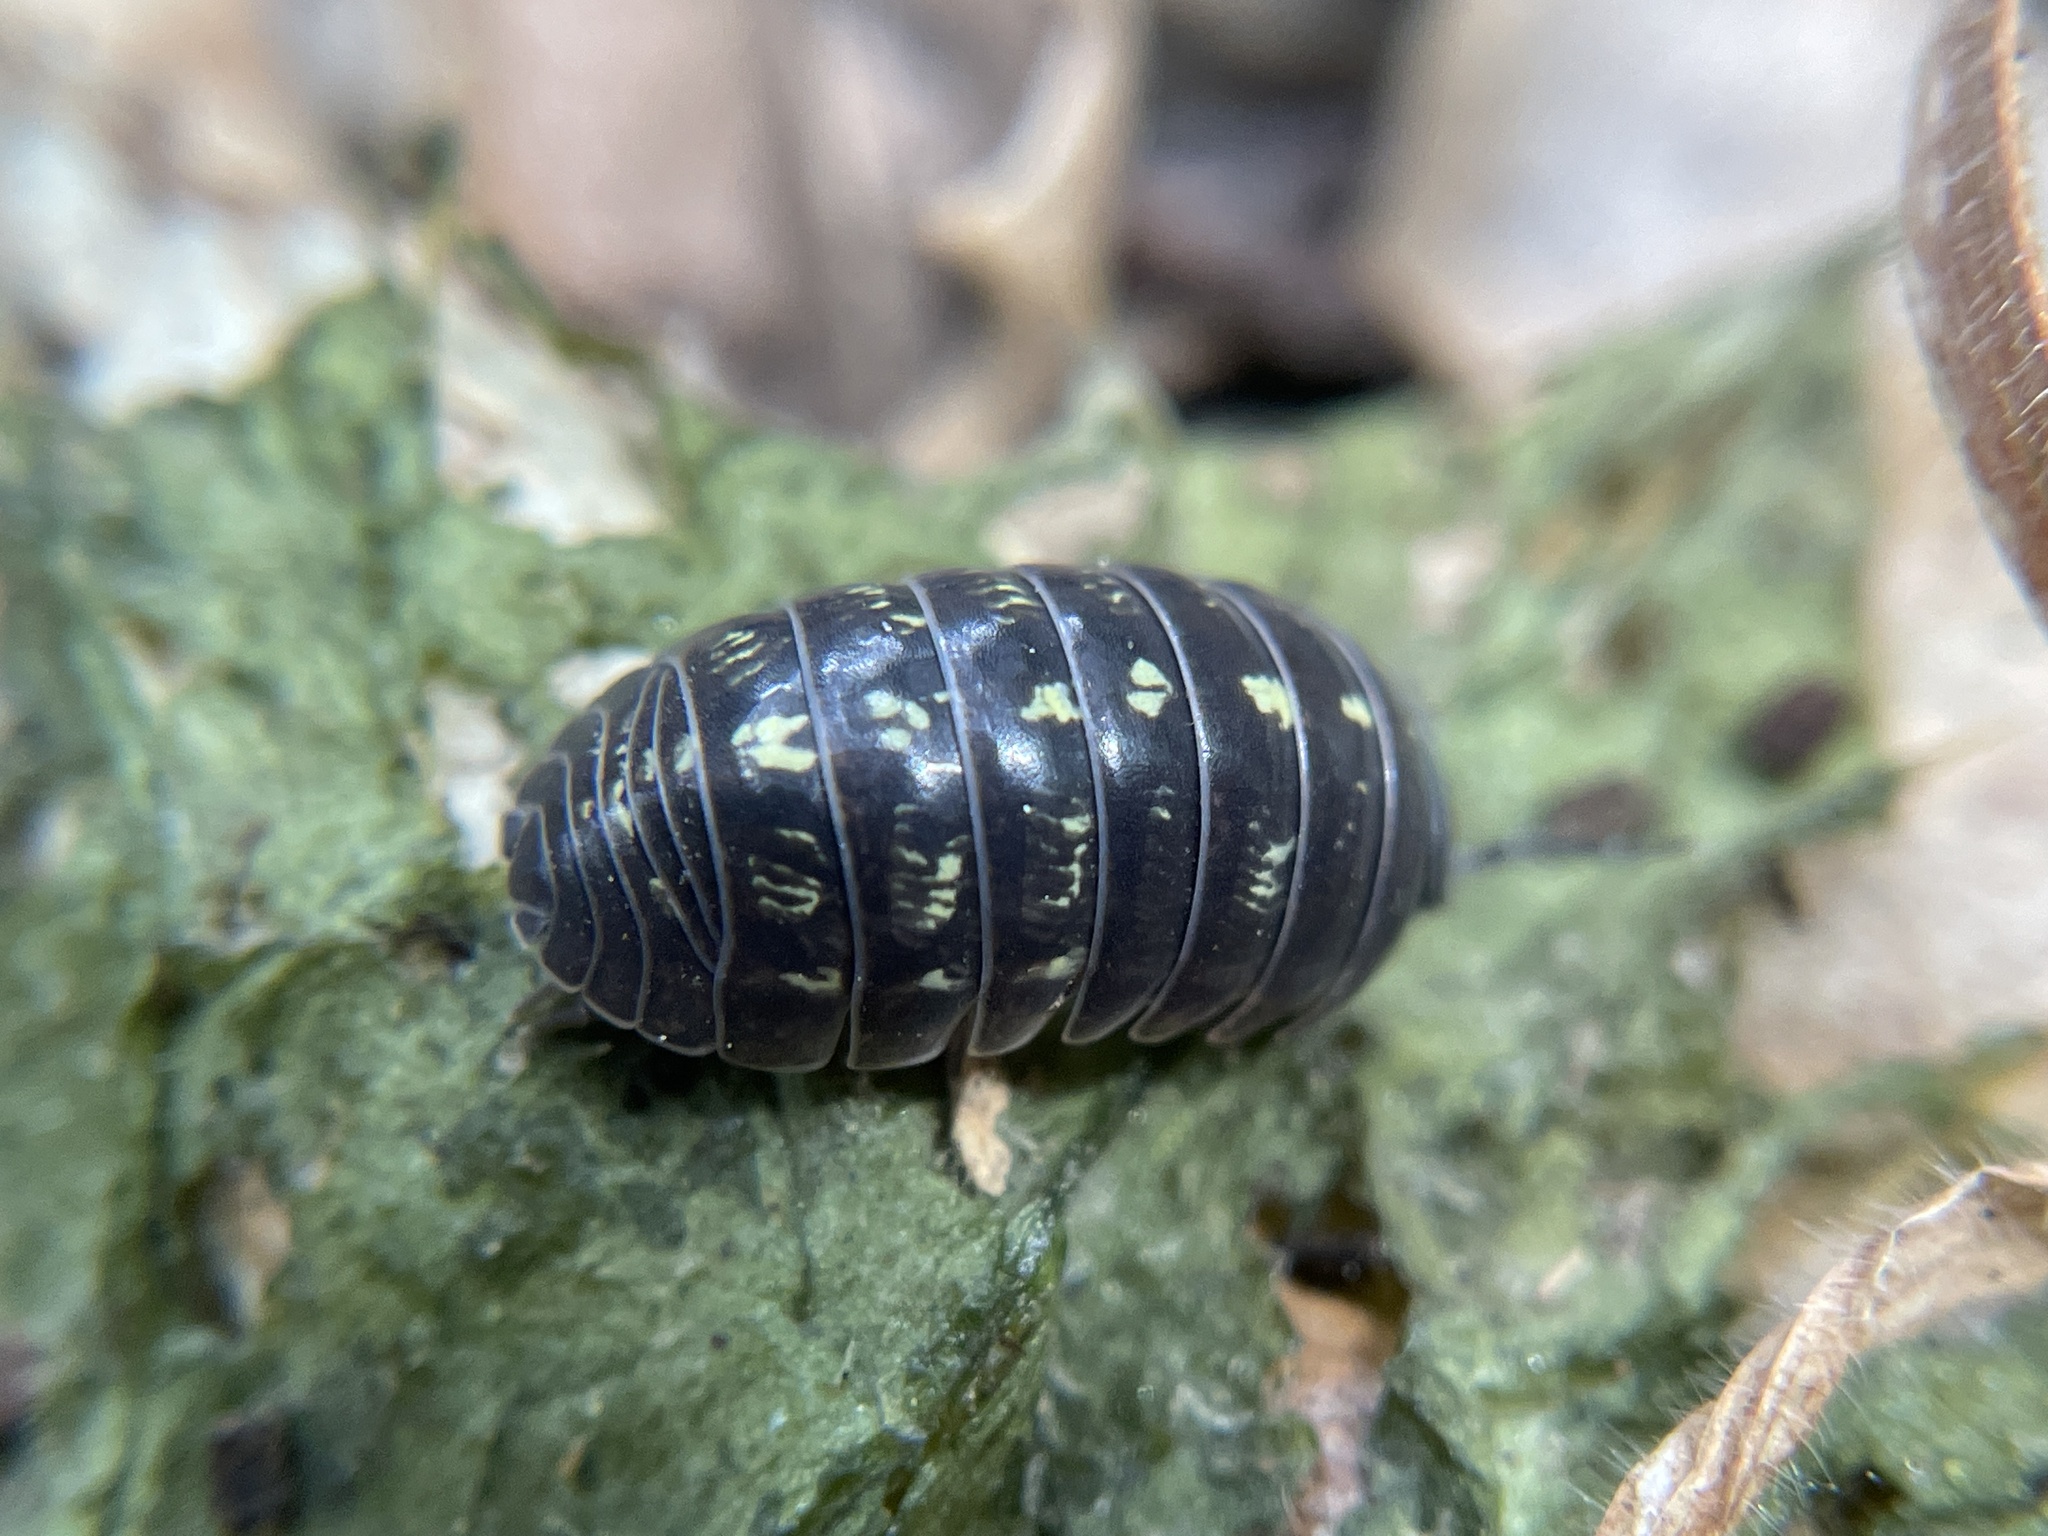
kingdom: Animalia
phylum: Arthropoda
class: Malacostraca
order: Isopoda
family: Armadillidiidae
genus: Armadillidium
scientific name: Armadillidium vulgare
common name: Common pill woodlouse
